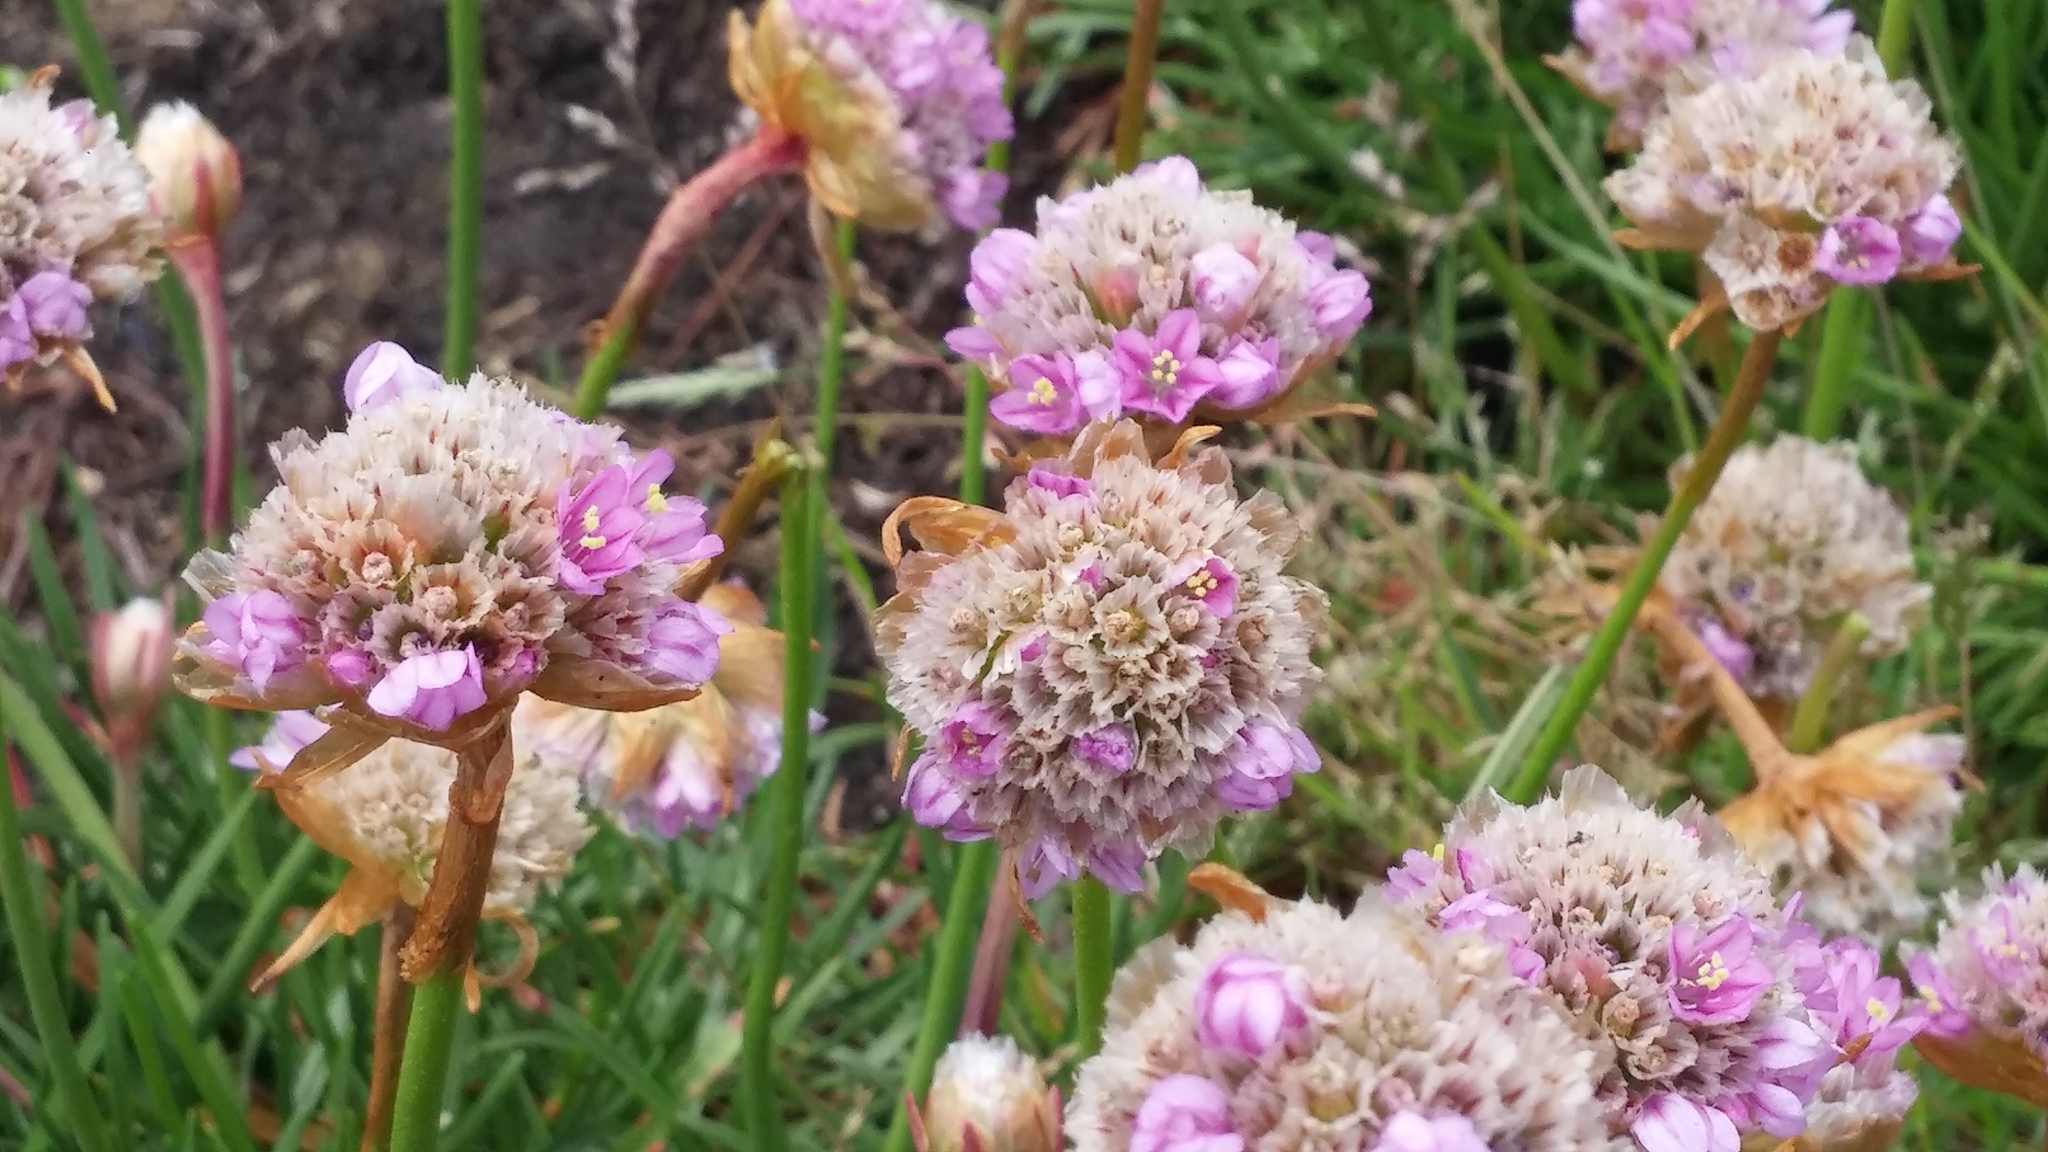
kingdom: Plantae
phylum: Tracheophyta
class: Magnoliopsida
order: Caryophyllales
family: Plumbaginaceae
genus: Armeria
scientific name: Armeria maritima
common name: Thrift
